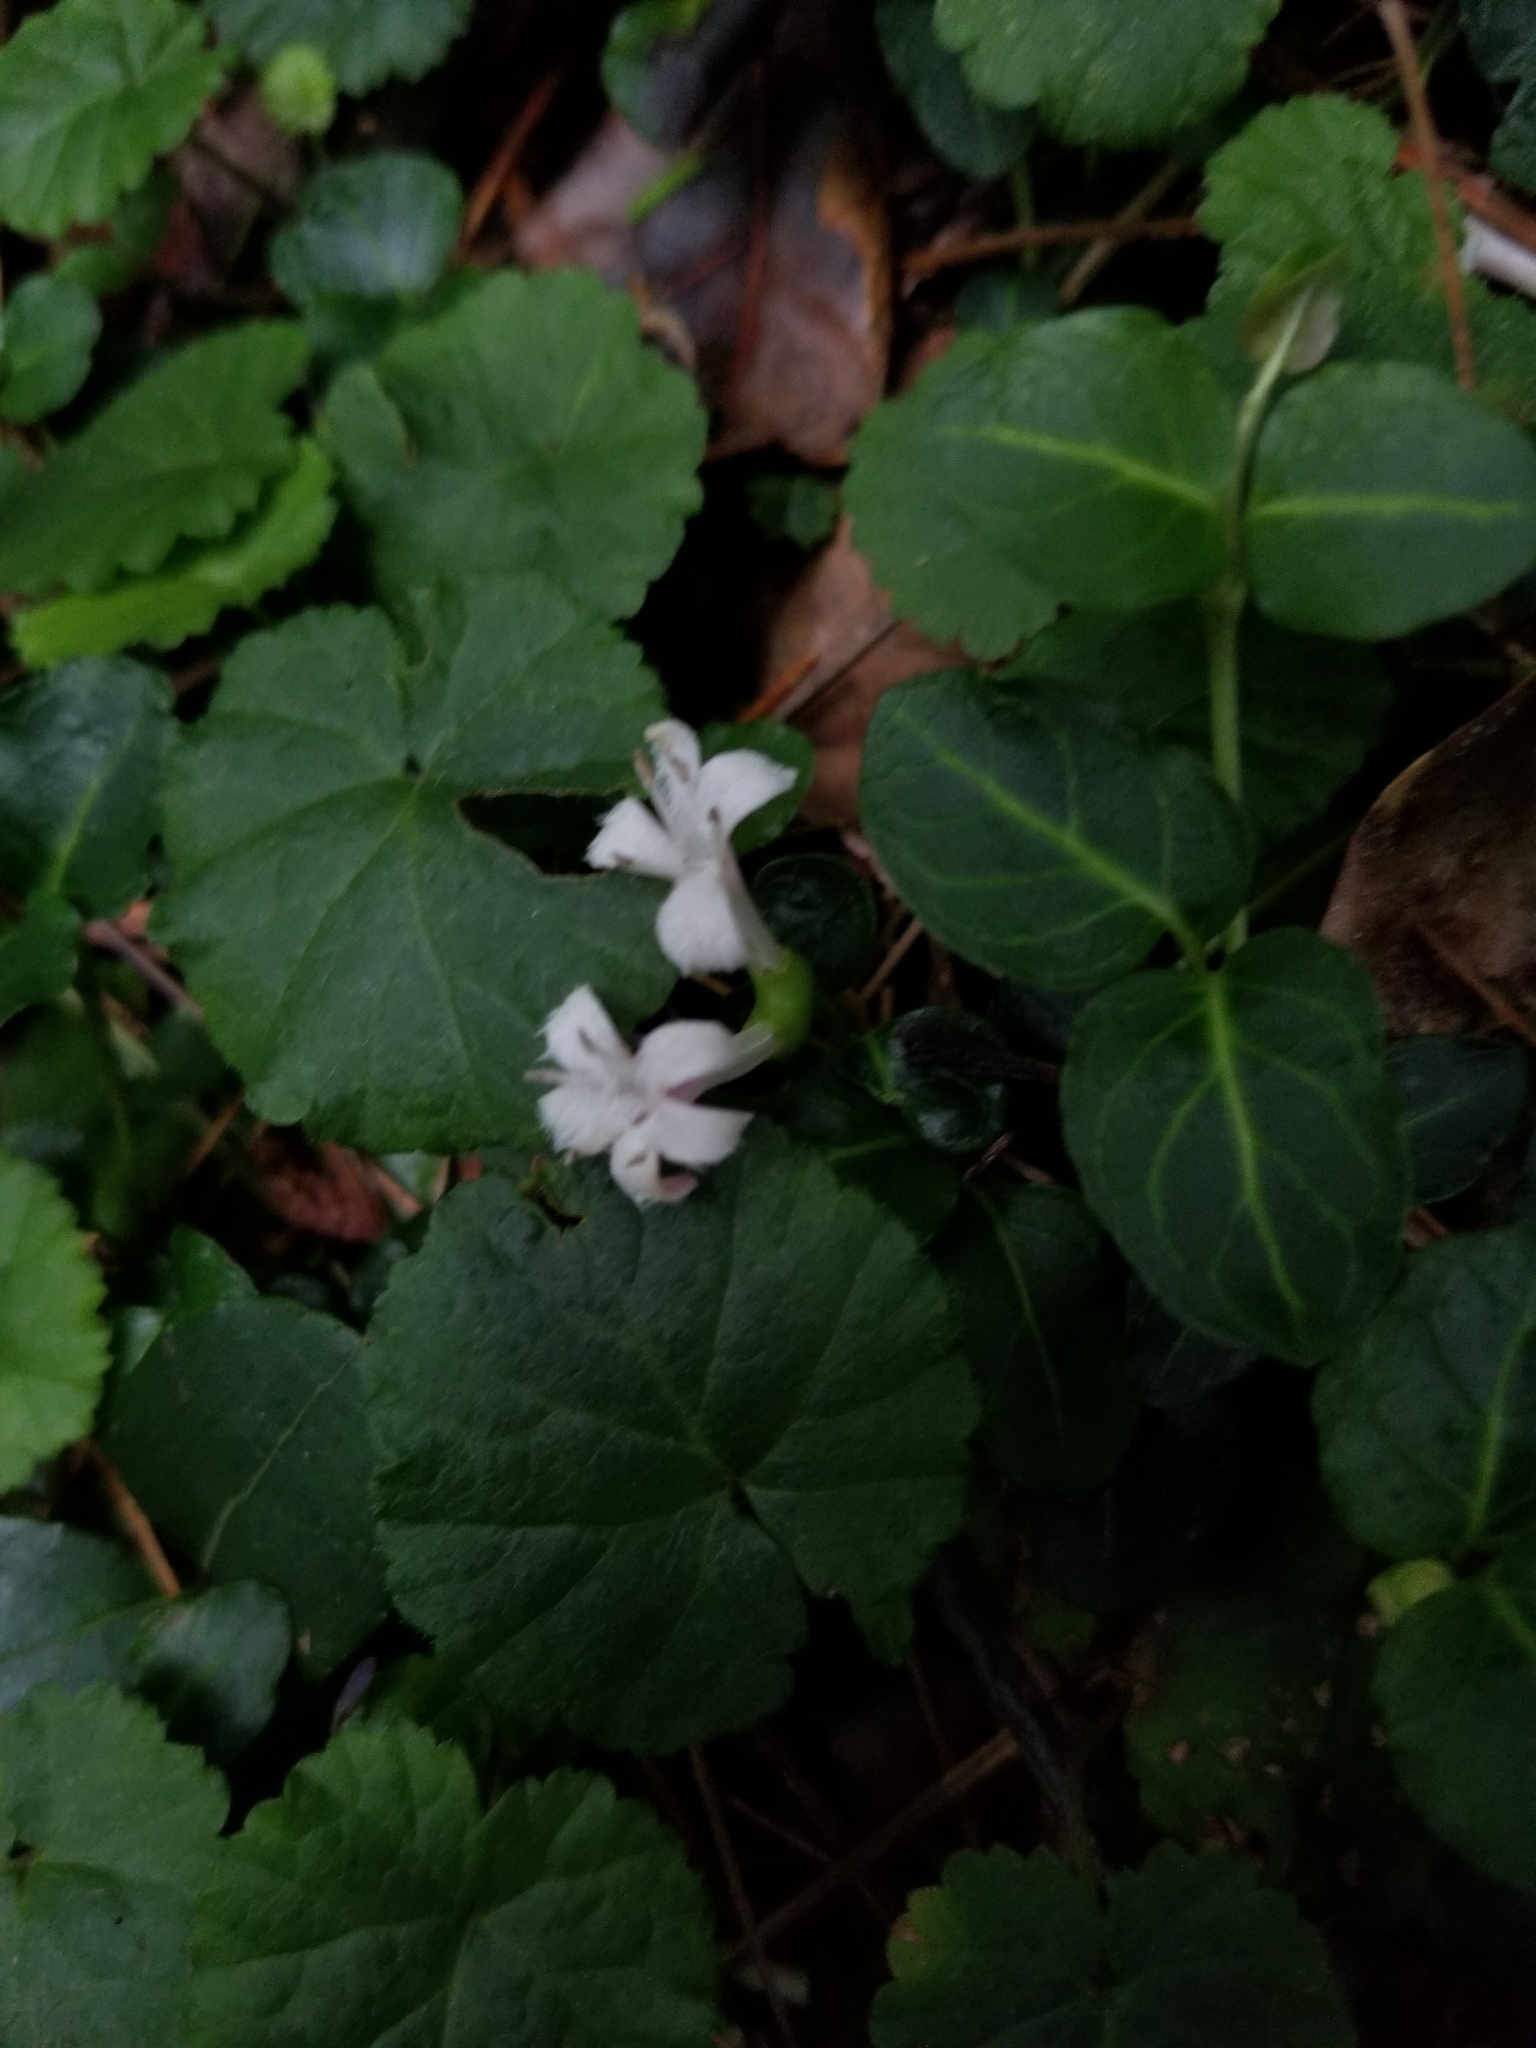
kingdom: Plantae
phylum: Tracheophyta
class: Magnoliopsida
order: Gentianales
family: Rubiaceae
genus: Mitchella
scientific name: Mitchella repens
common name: Partridge-berry
